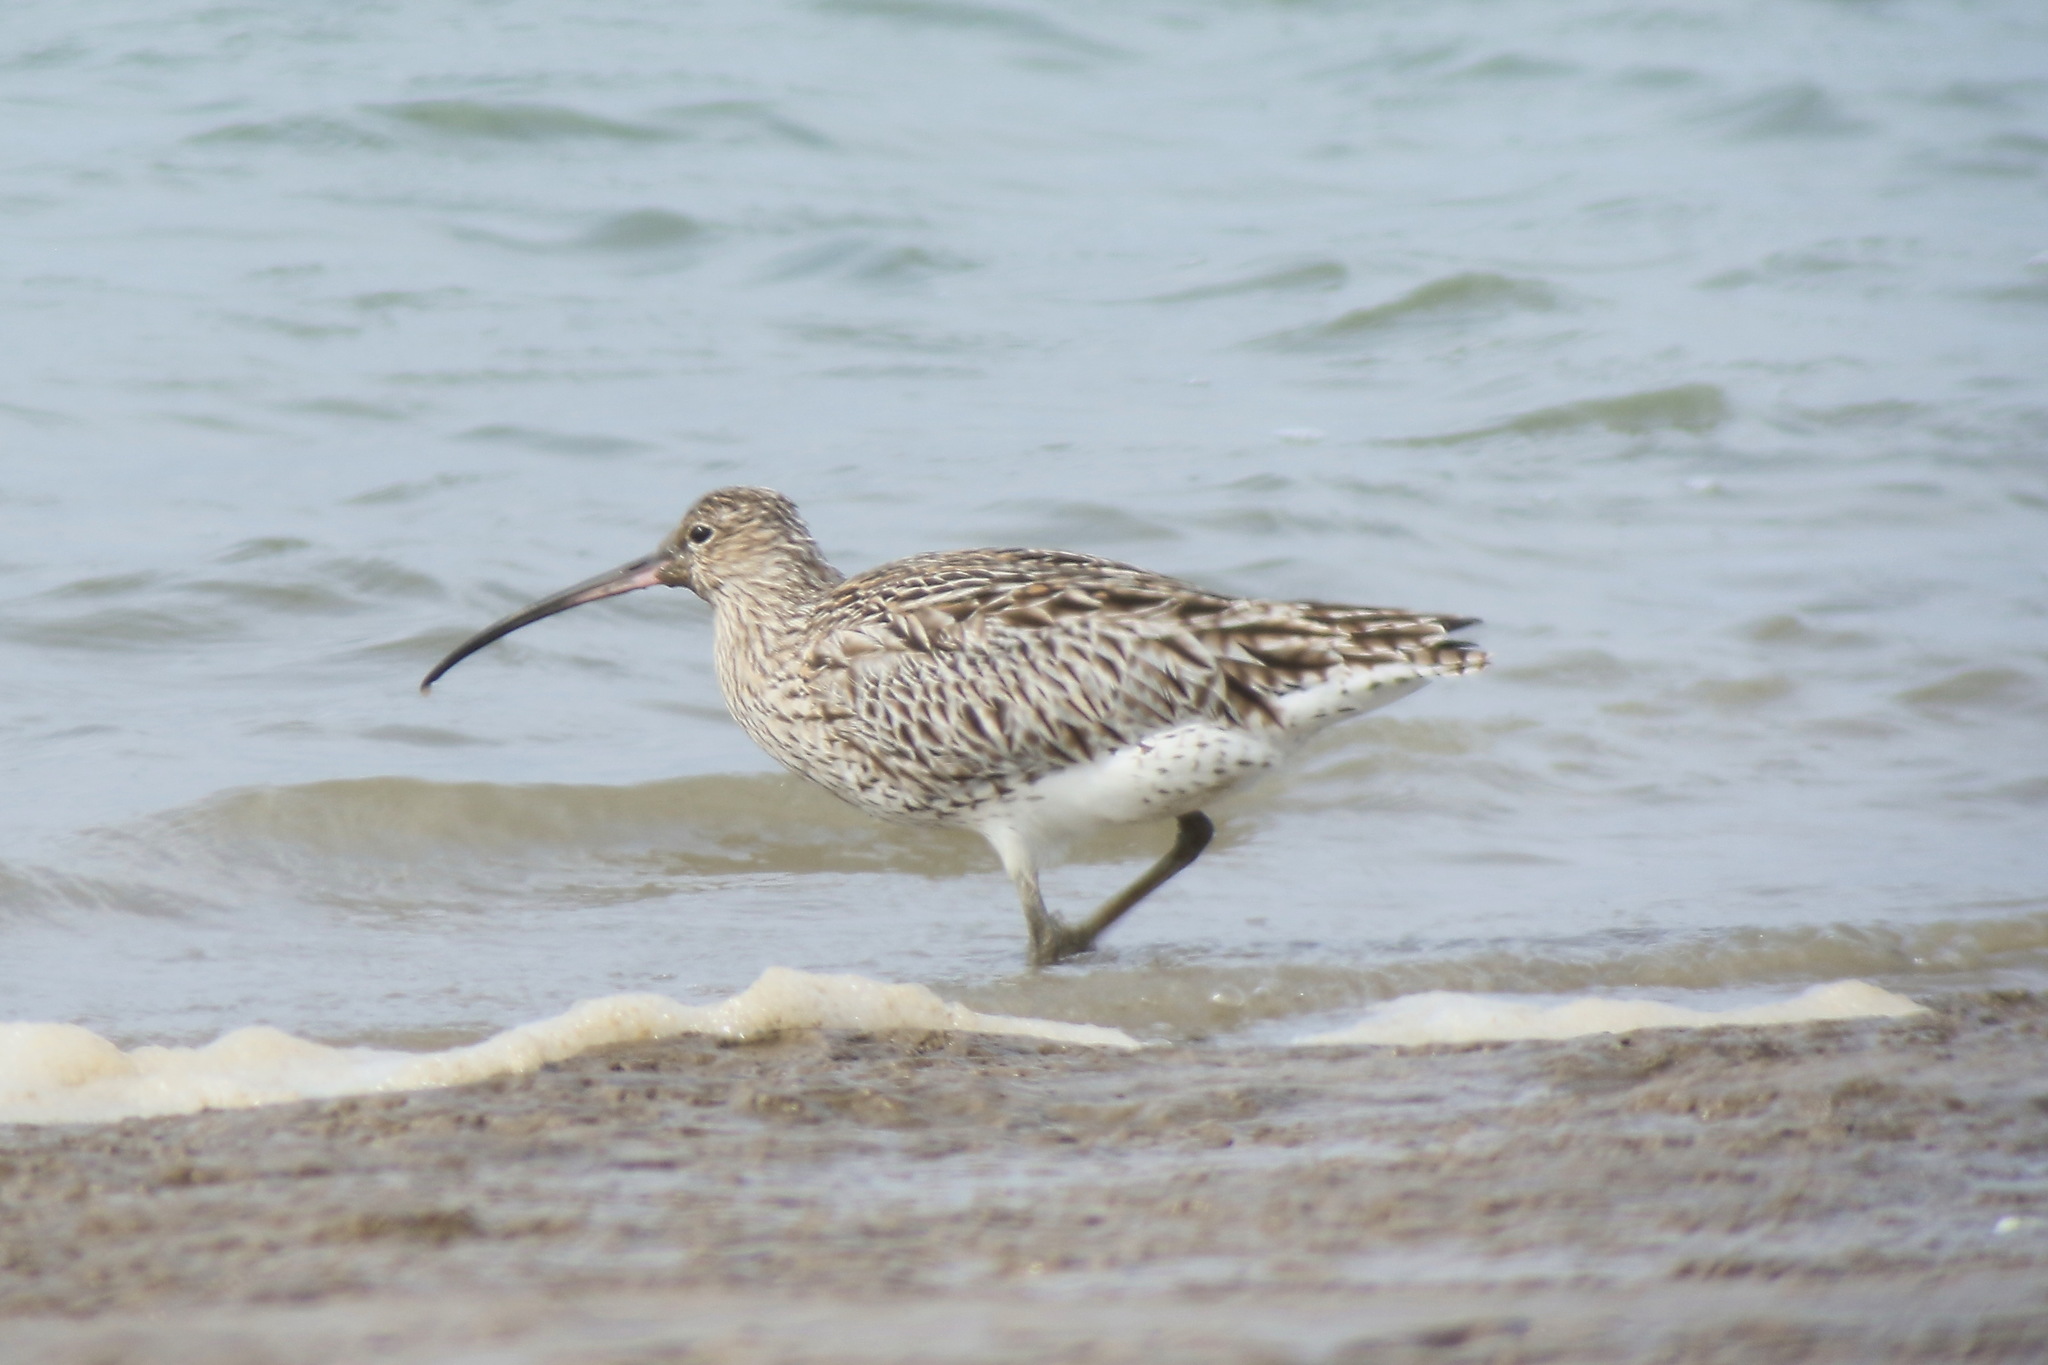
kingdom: Animalia
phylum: Chordata
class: Aves
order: Charadriiformes
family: Scolopacidae
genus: Numenius
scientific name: Numenius arquata
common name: Eurasian curlew
